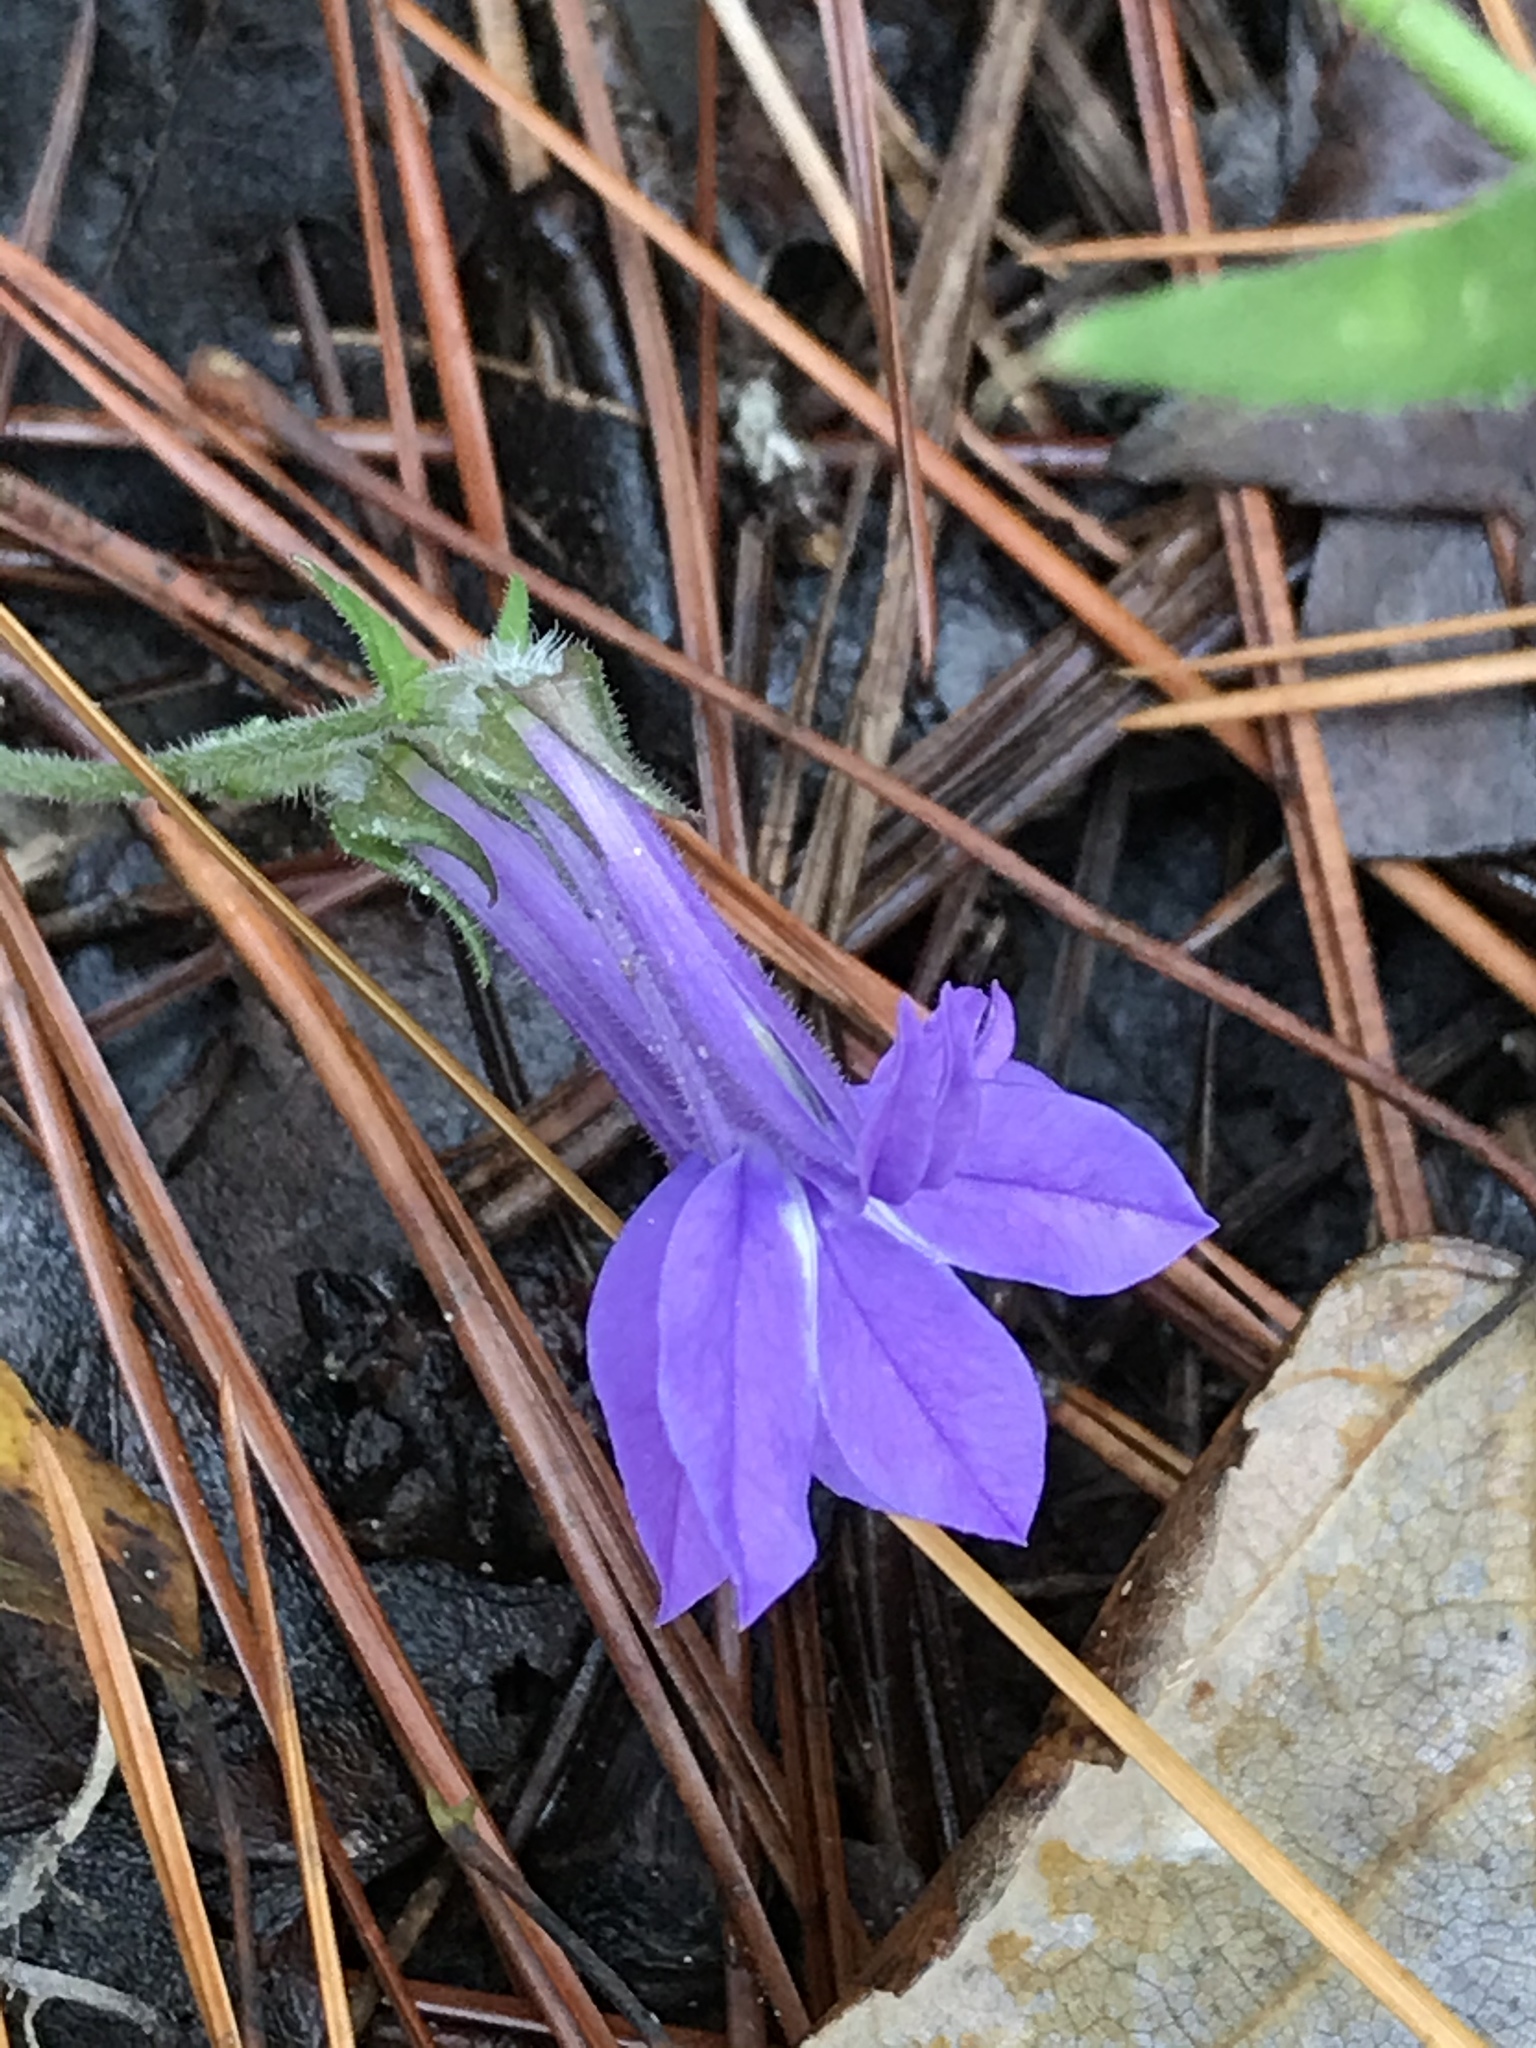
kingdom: Plantae
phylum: Tracheophyta
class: Magnoliopsida
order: Asterales
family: Campanulaceae
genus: Lobelia
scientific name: Lobelia reverchonii
